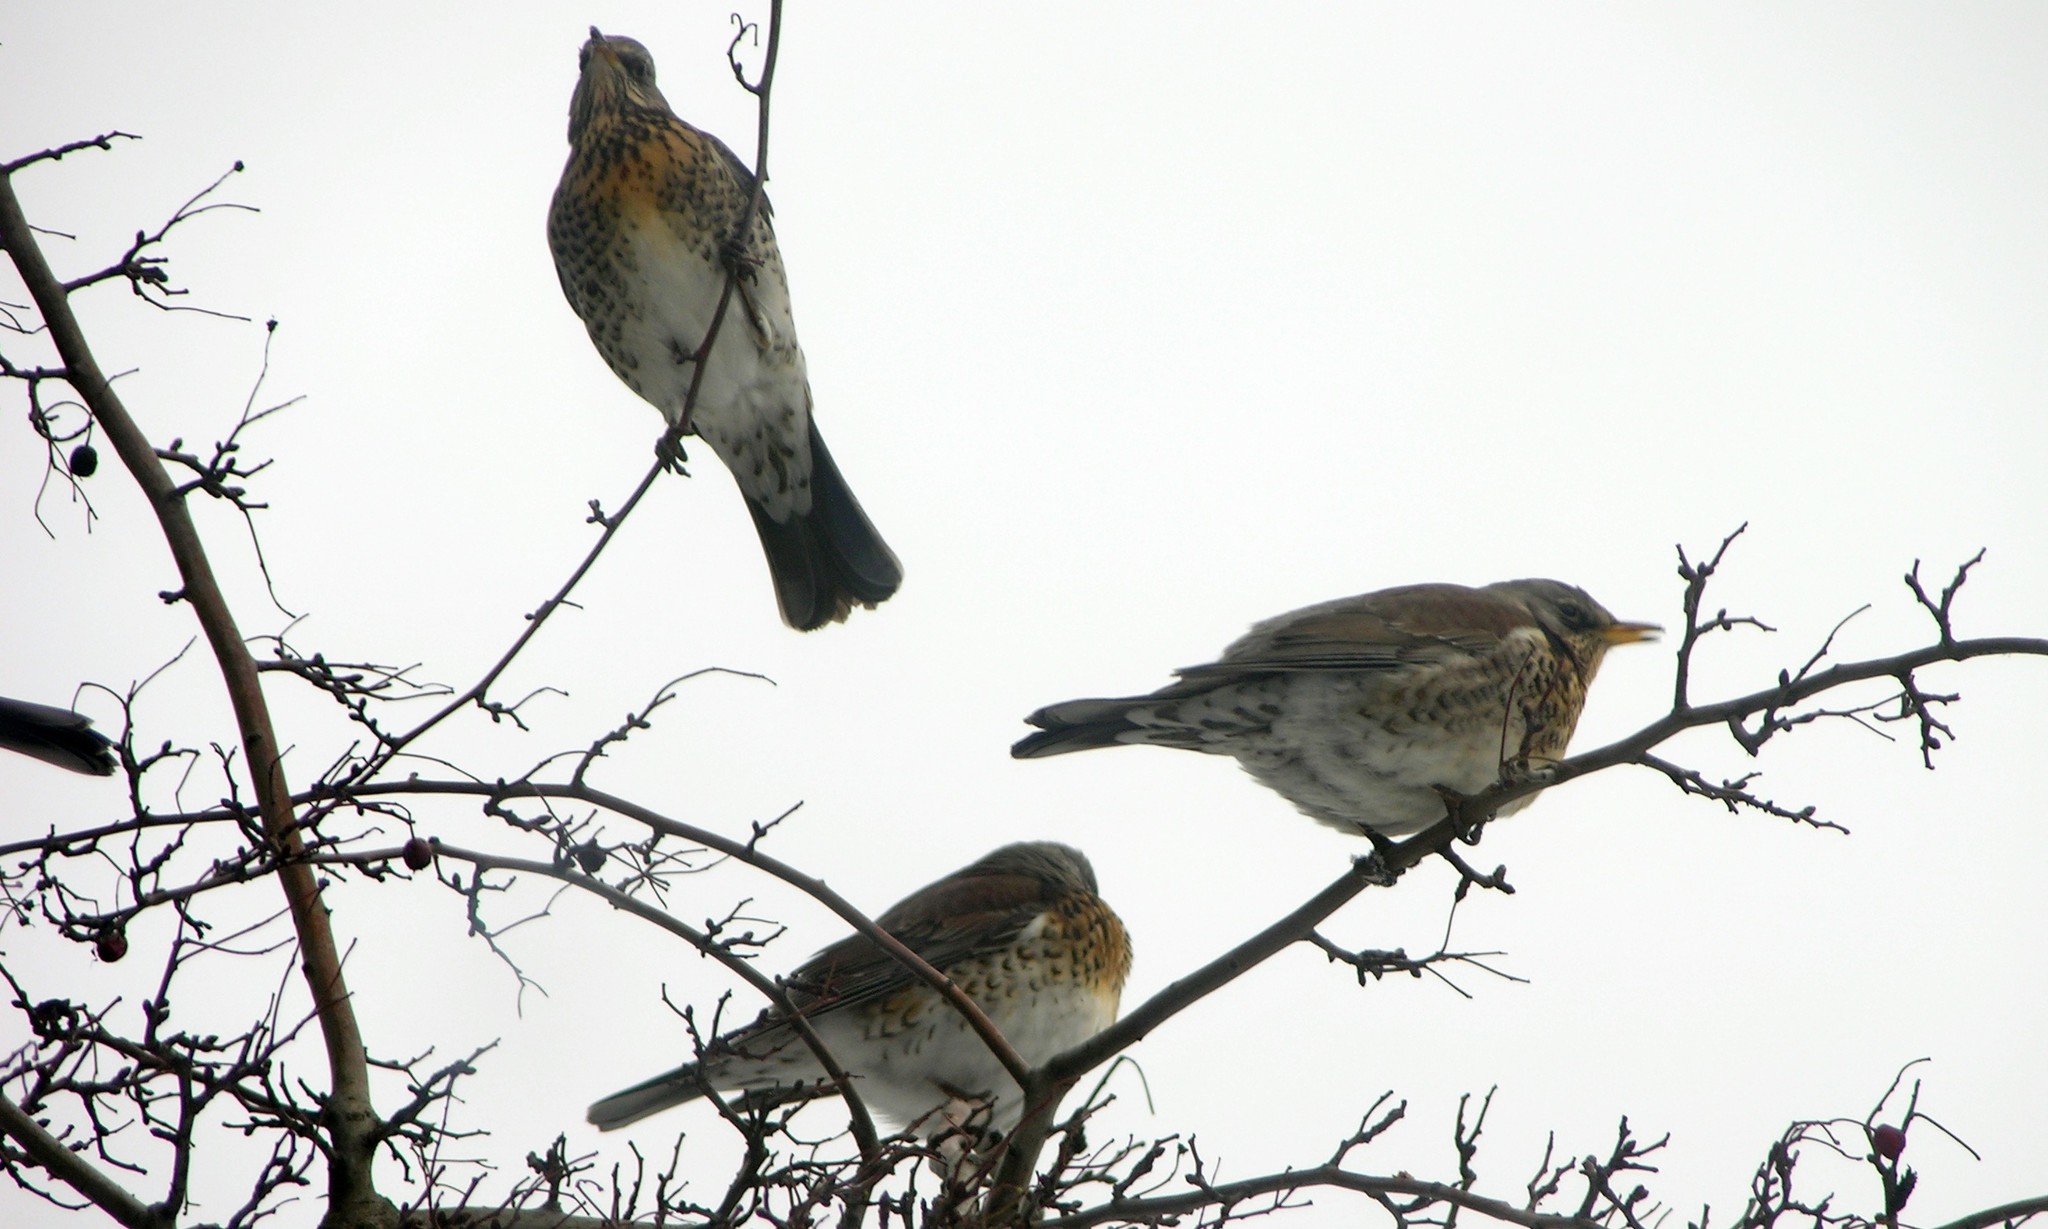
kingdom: Animalia
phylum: Chordata
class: Aves
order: Passeriformes
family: Turdidae
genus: Turdus
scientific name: Turdus pilaris
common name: Fieldfare
